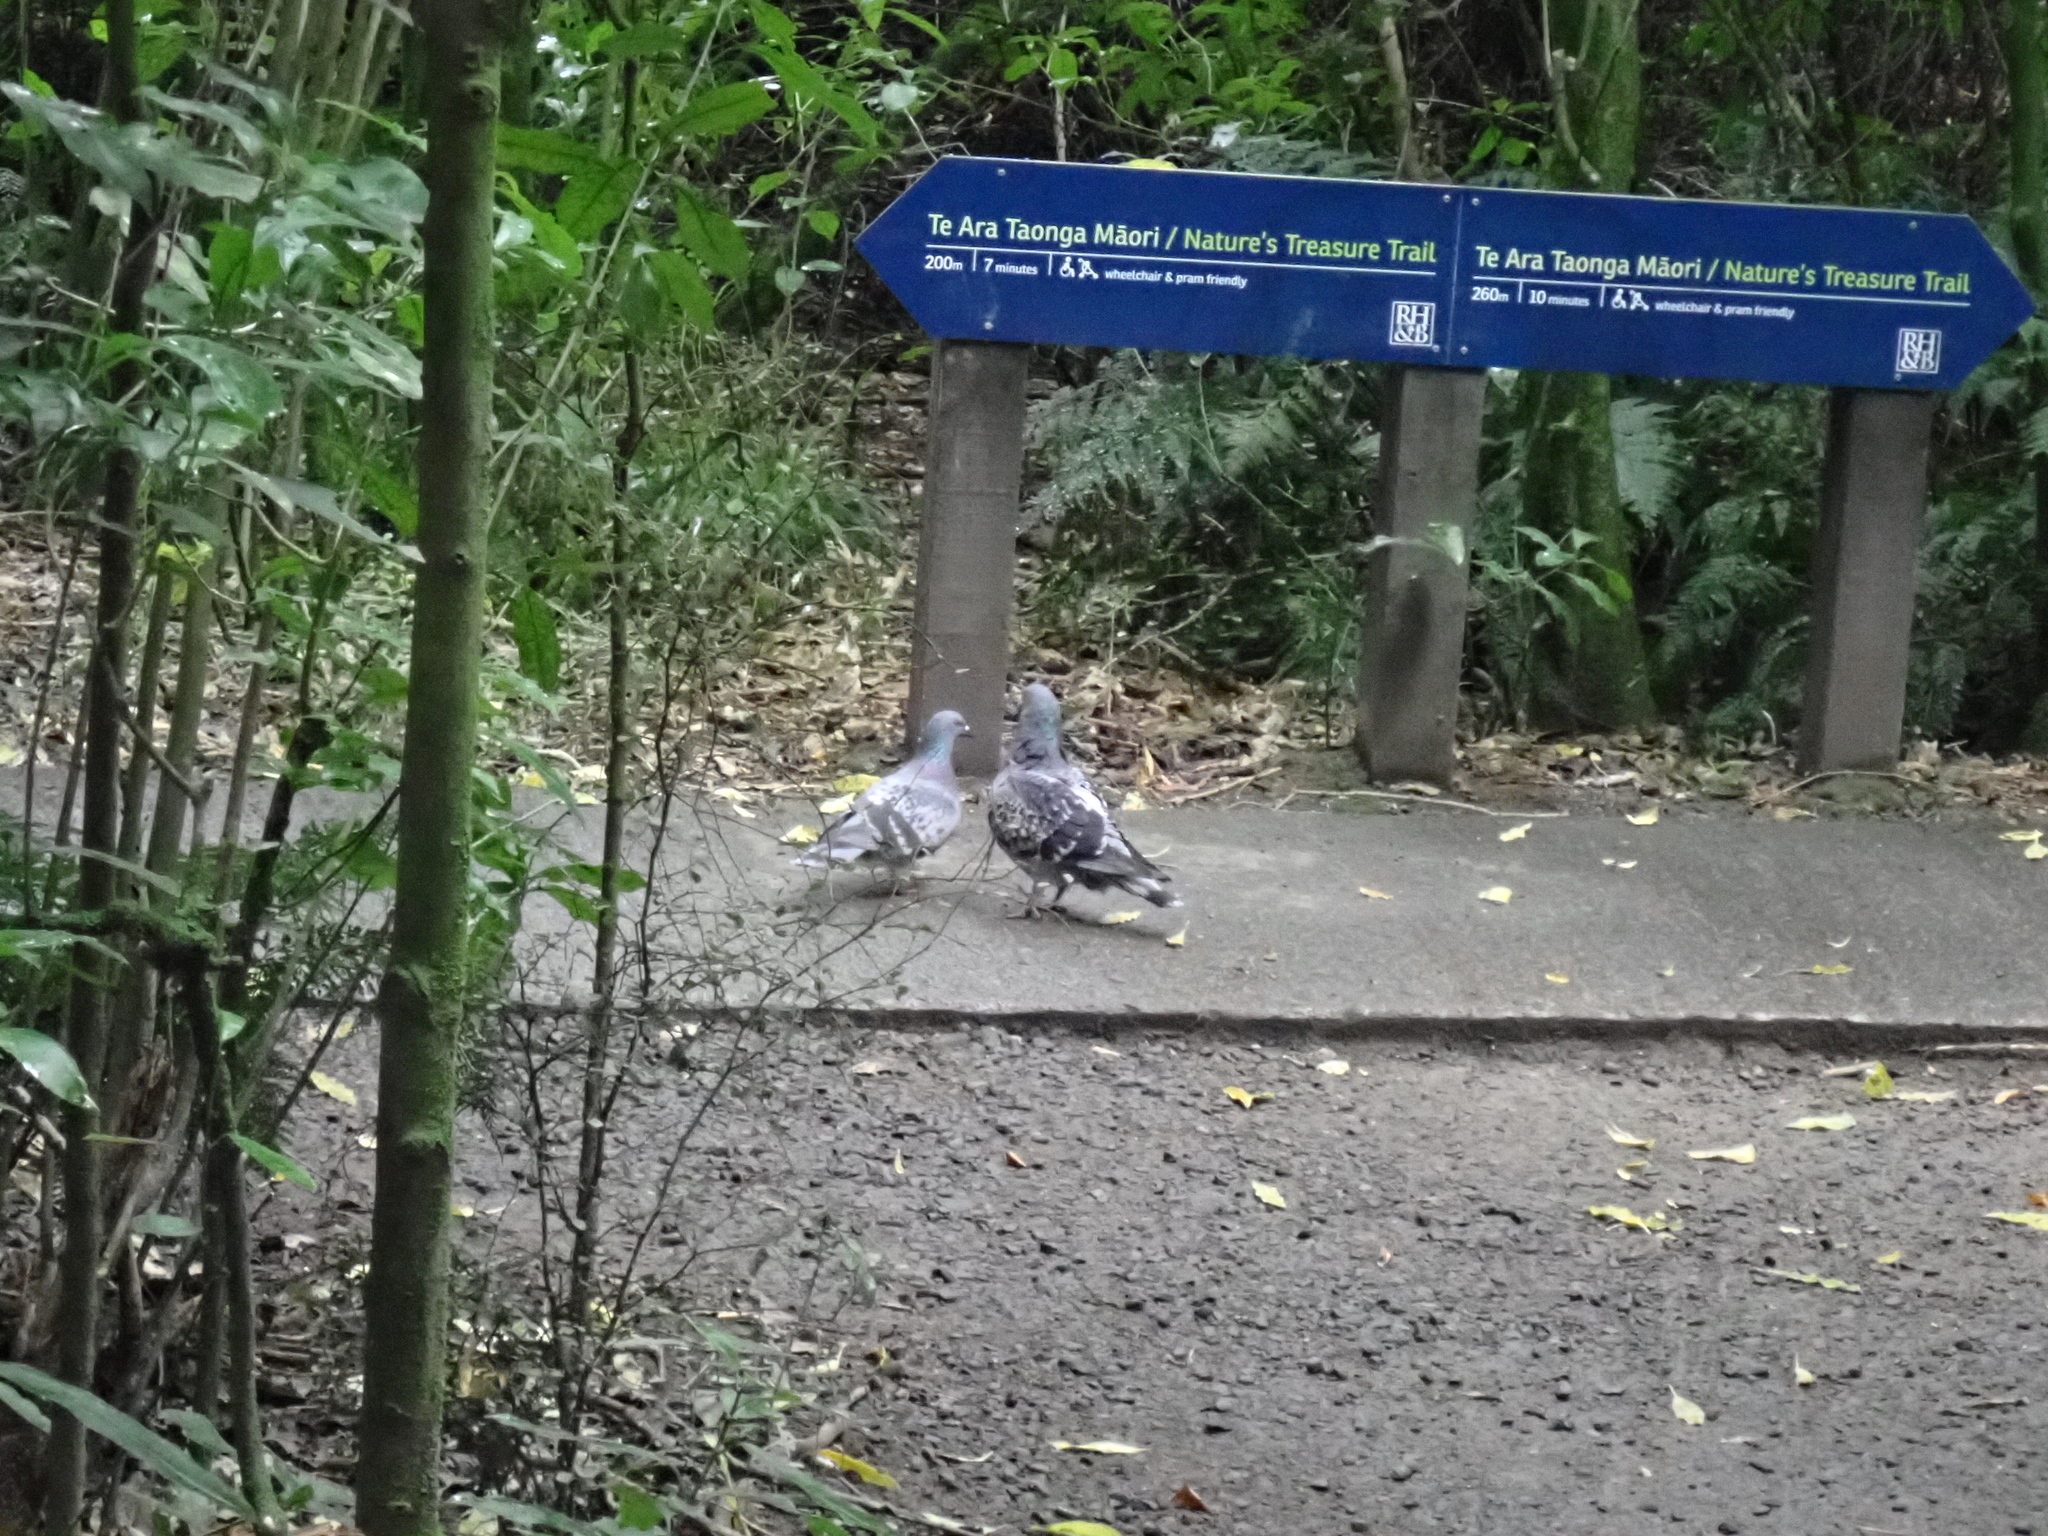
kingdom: Animalia
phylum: Chordata
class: Aves
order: Columbiformes
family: Columbidae
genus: Columba
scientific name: Columba livia
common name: Rock pigeon
